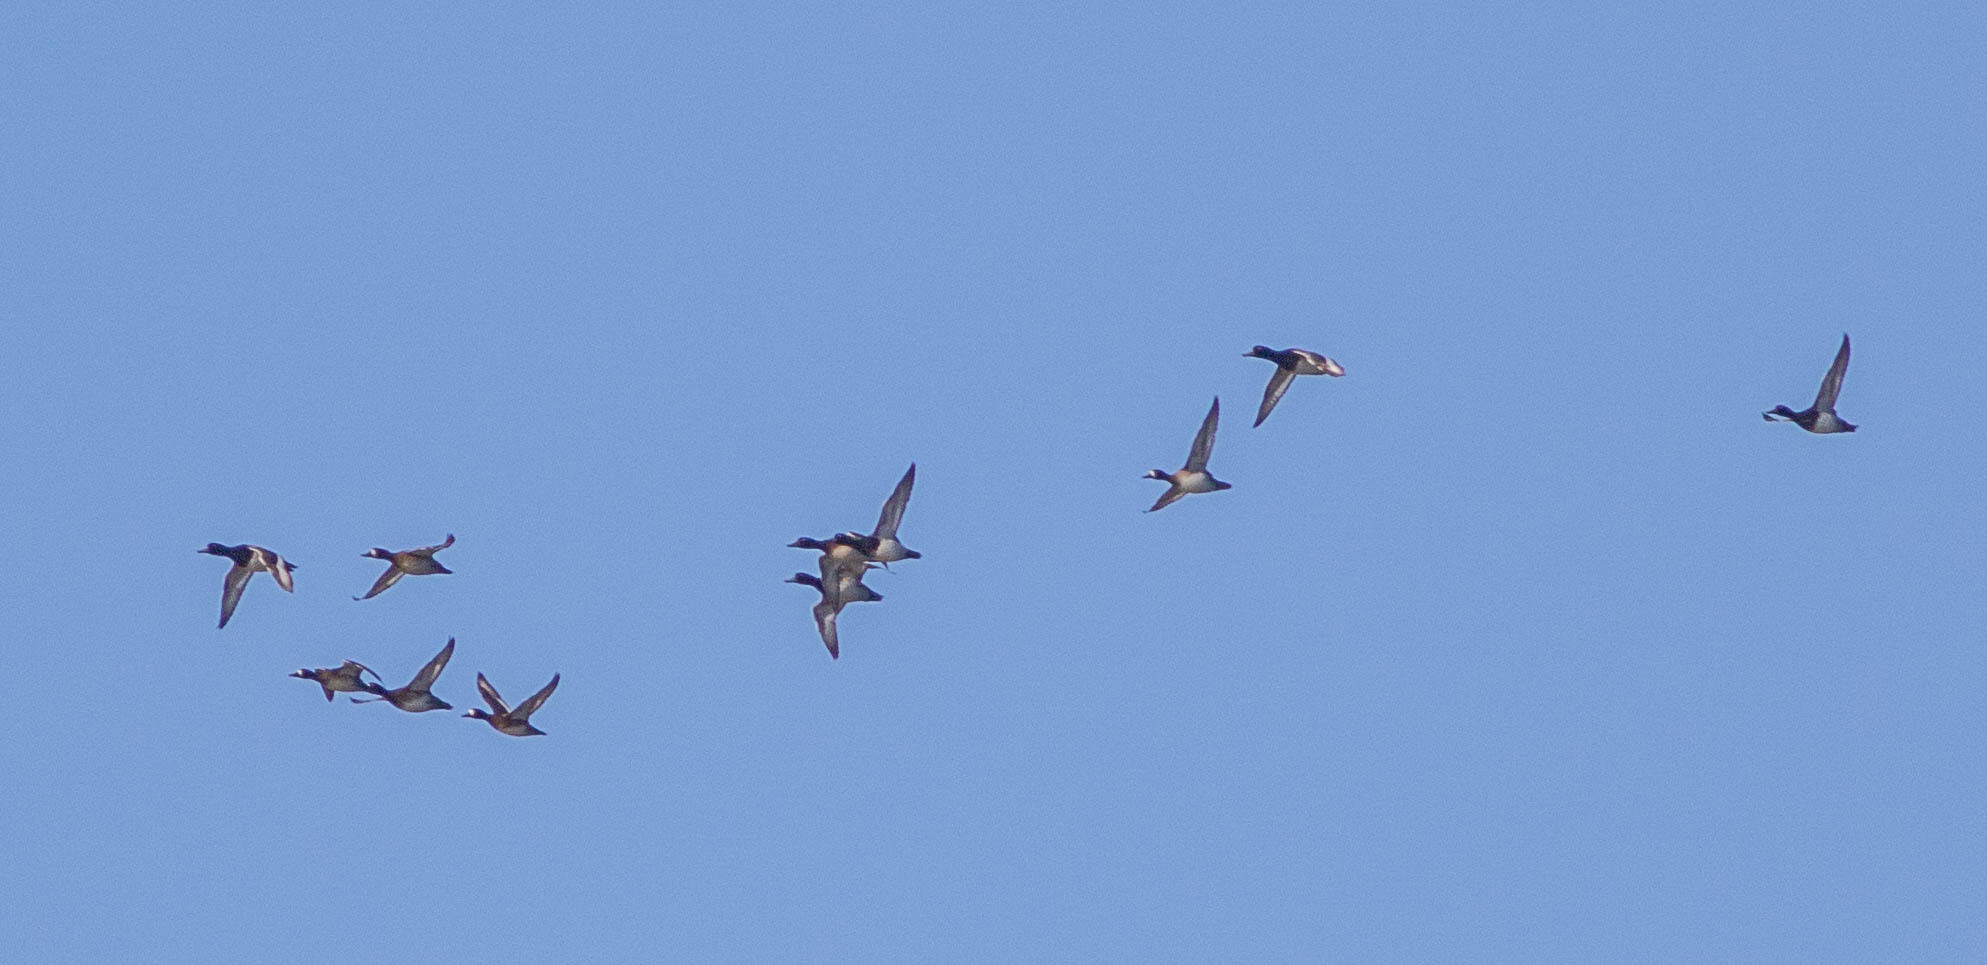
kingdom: Animalia
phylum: Chordata
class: Aves
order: Anseriformes
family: Anatidae
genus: Aythya
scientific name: Aythya
